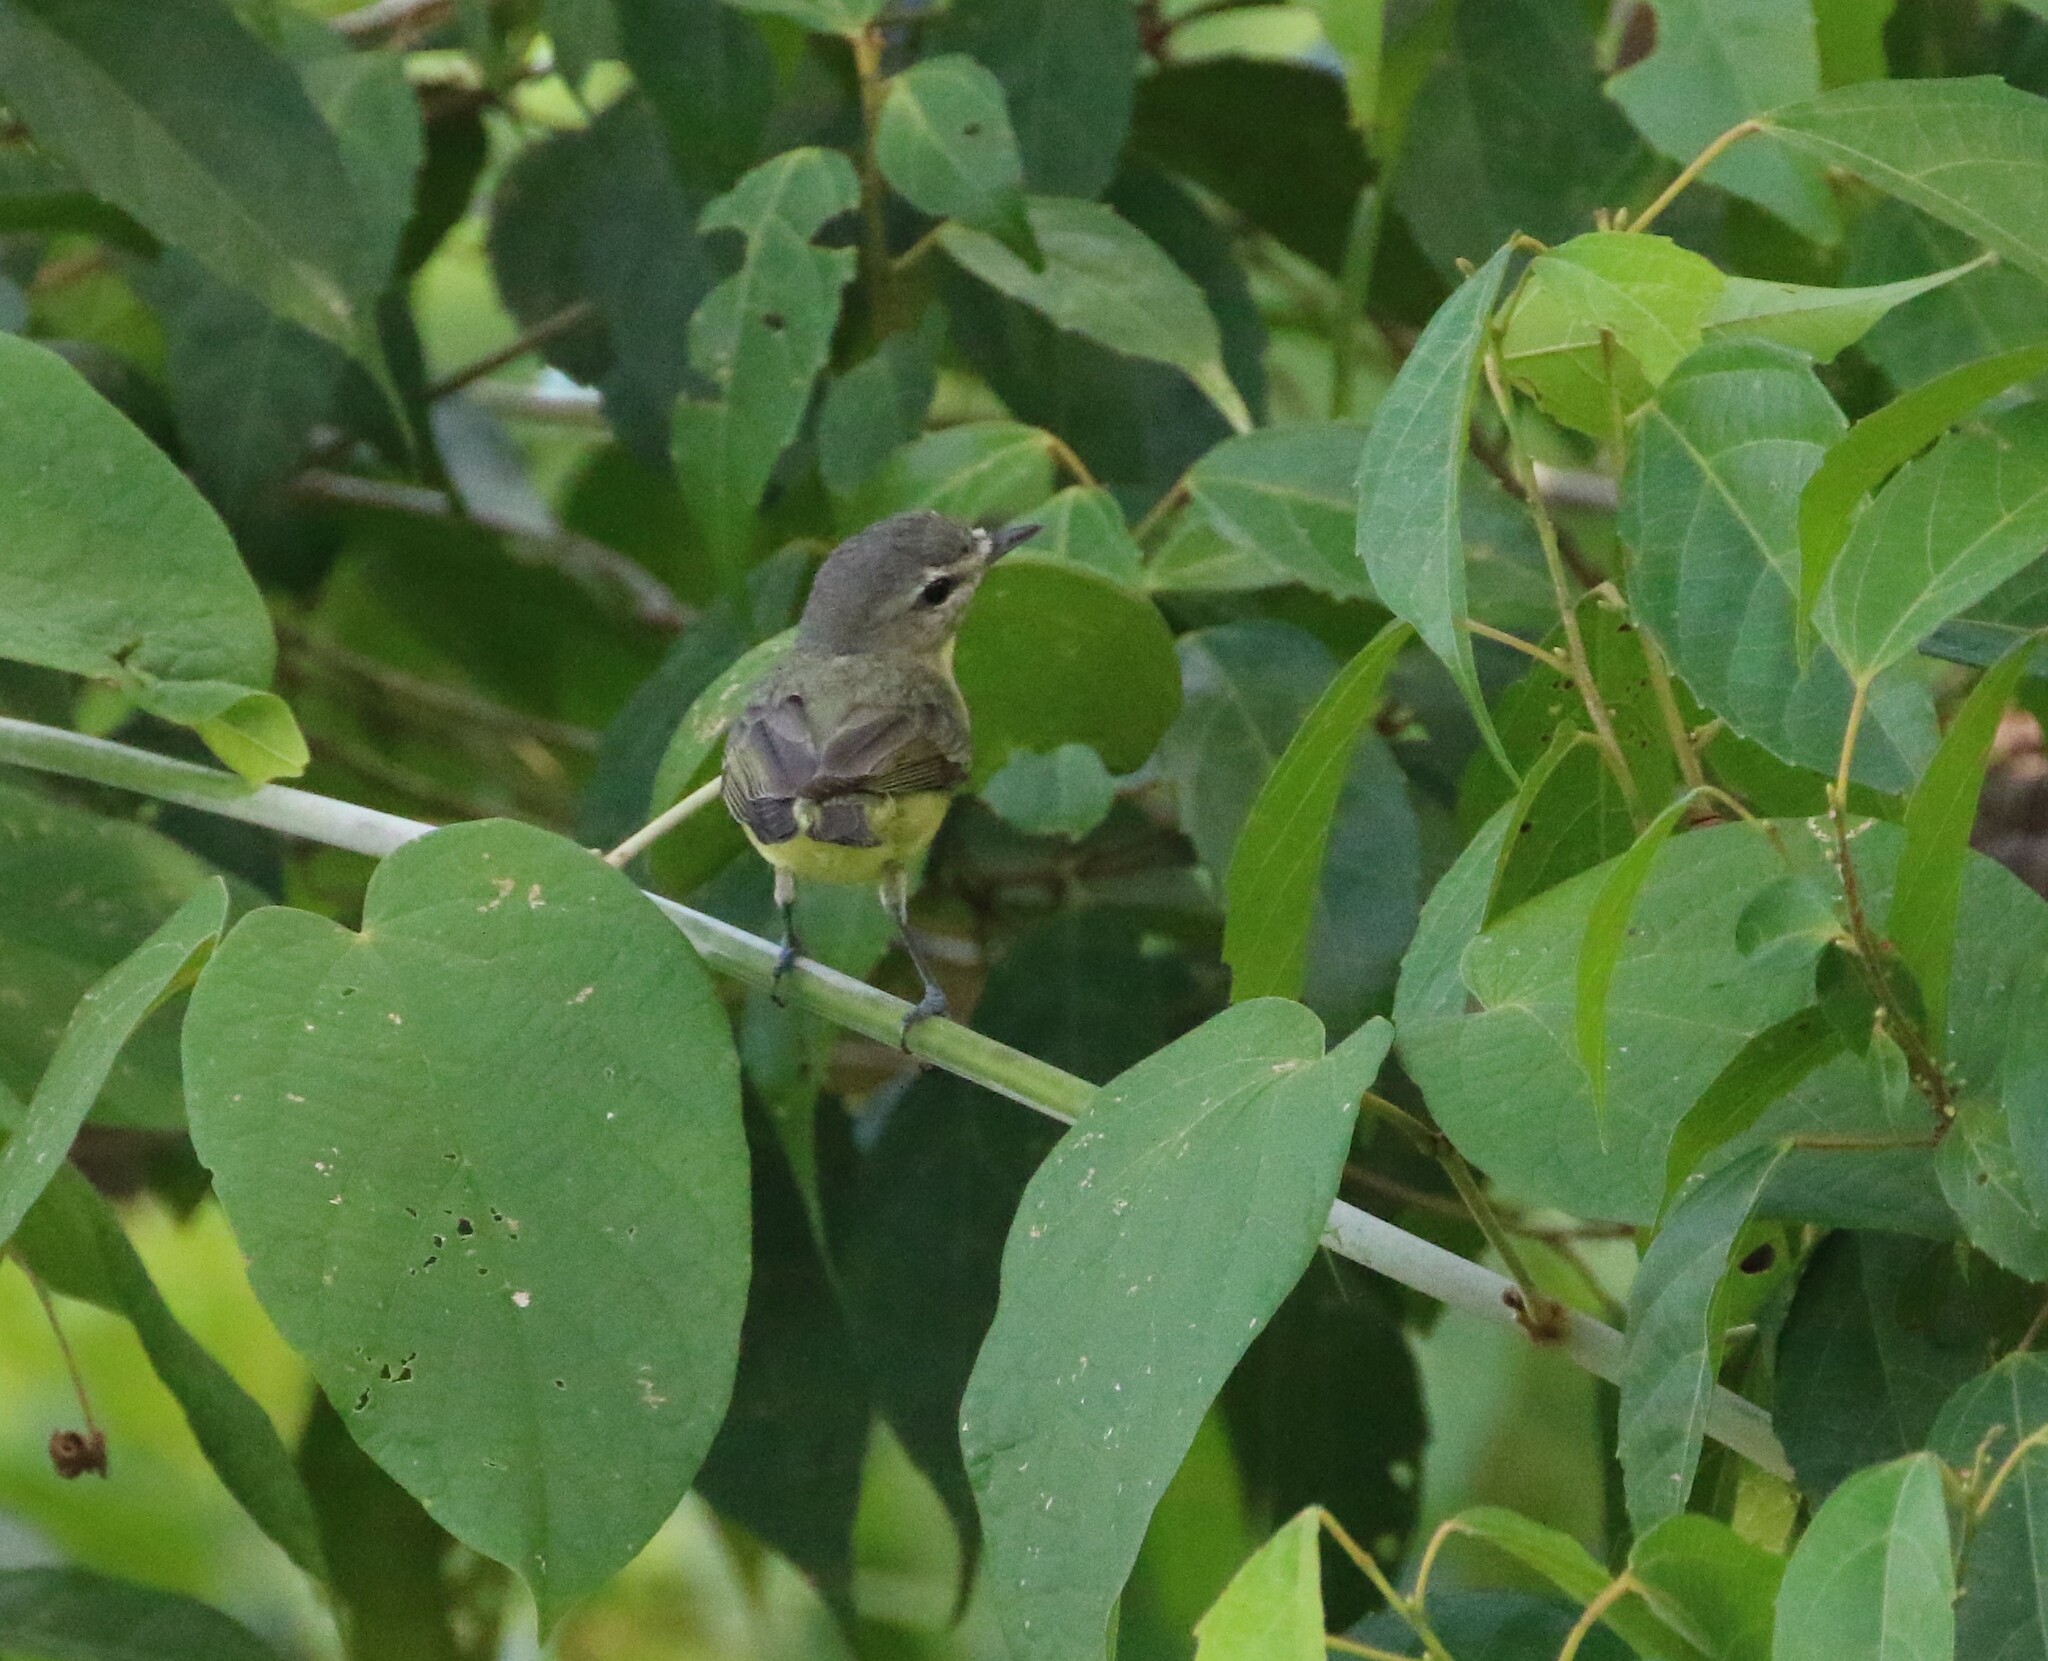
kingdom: Animalia
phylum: Chordata
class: Aves
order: Passeriformes
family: Vireonidae
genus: Vireo
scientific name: Vireo philadelphicus
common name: Philadelphia vireo
